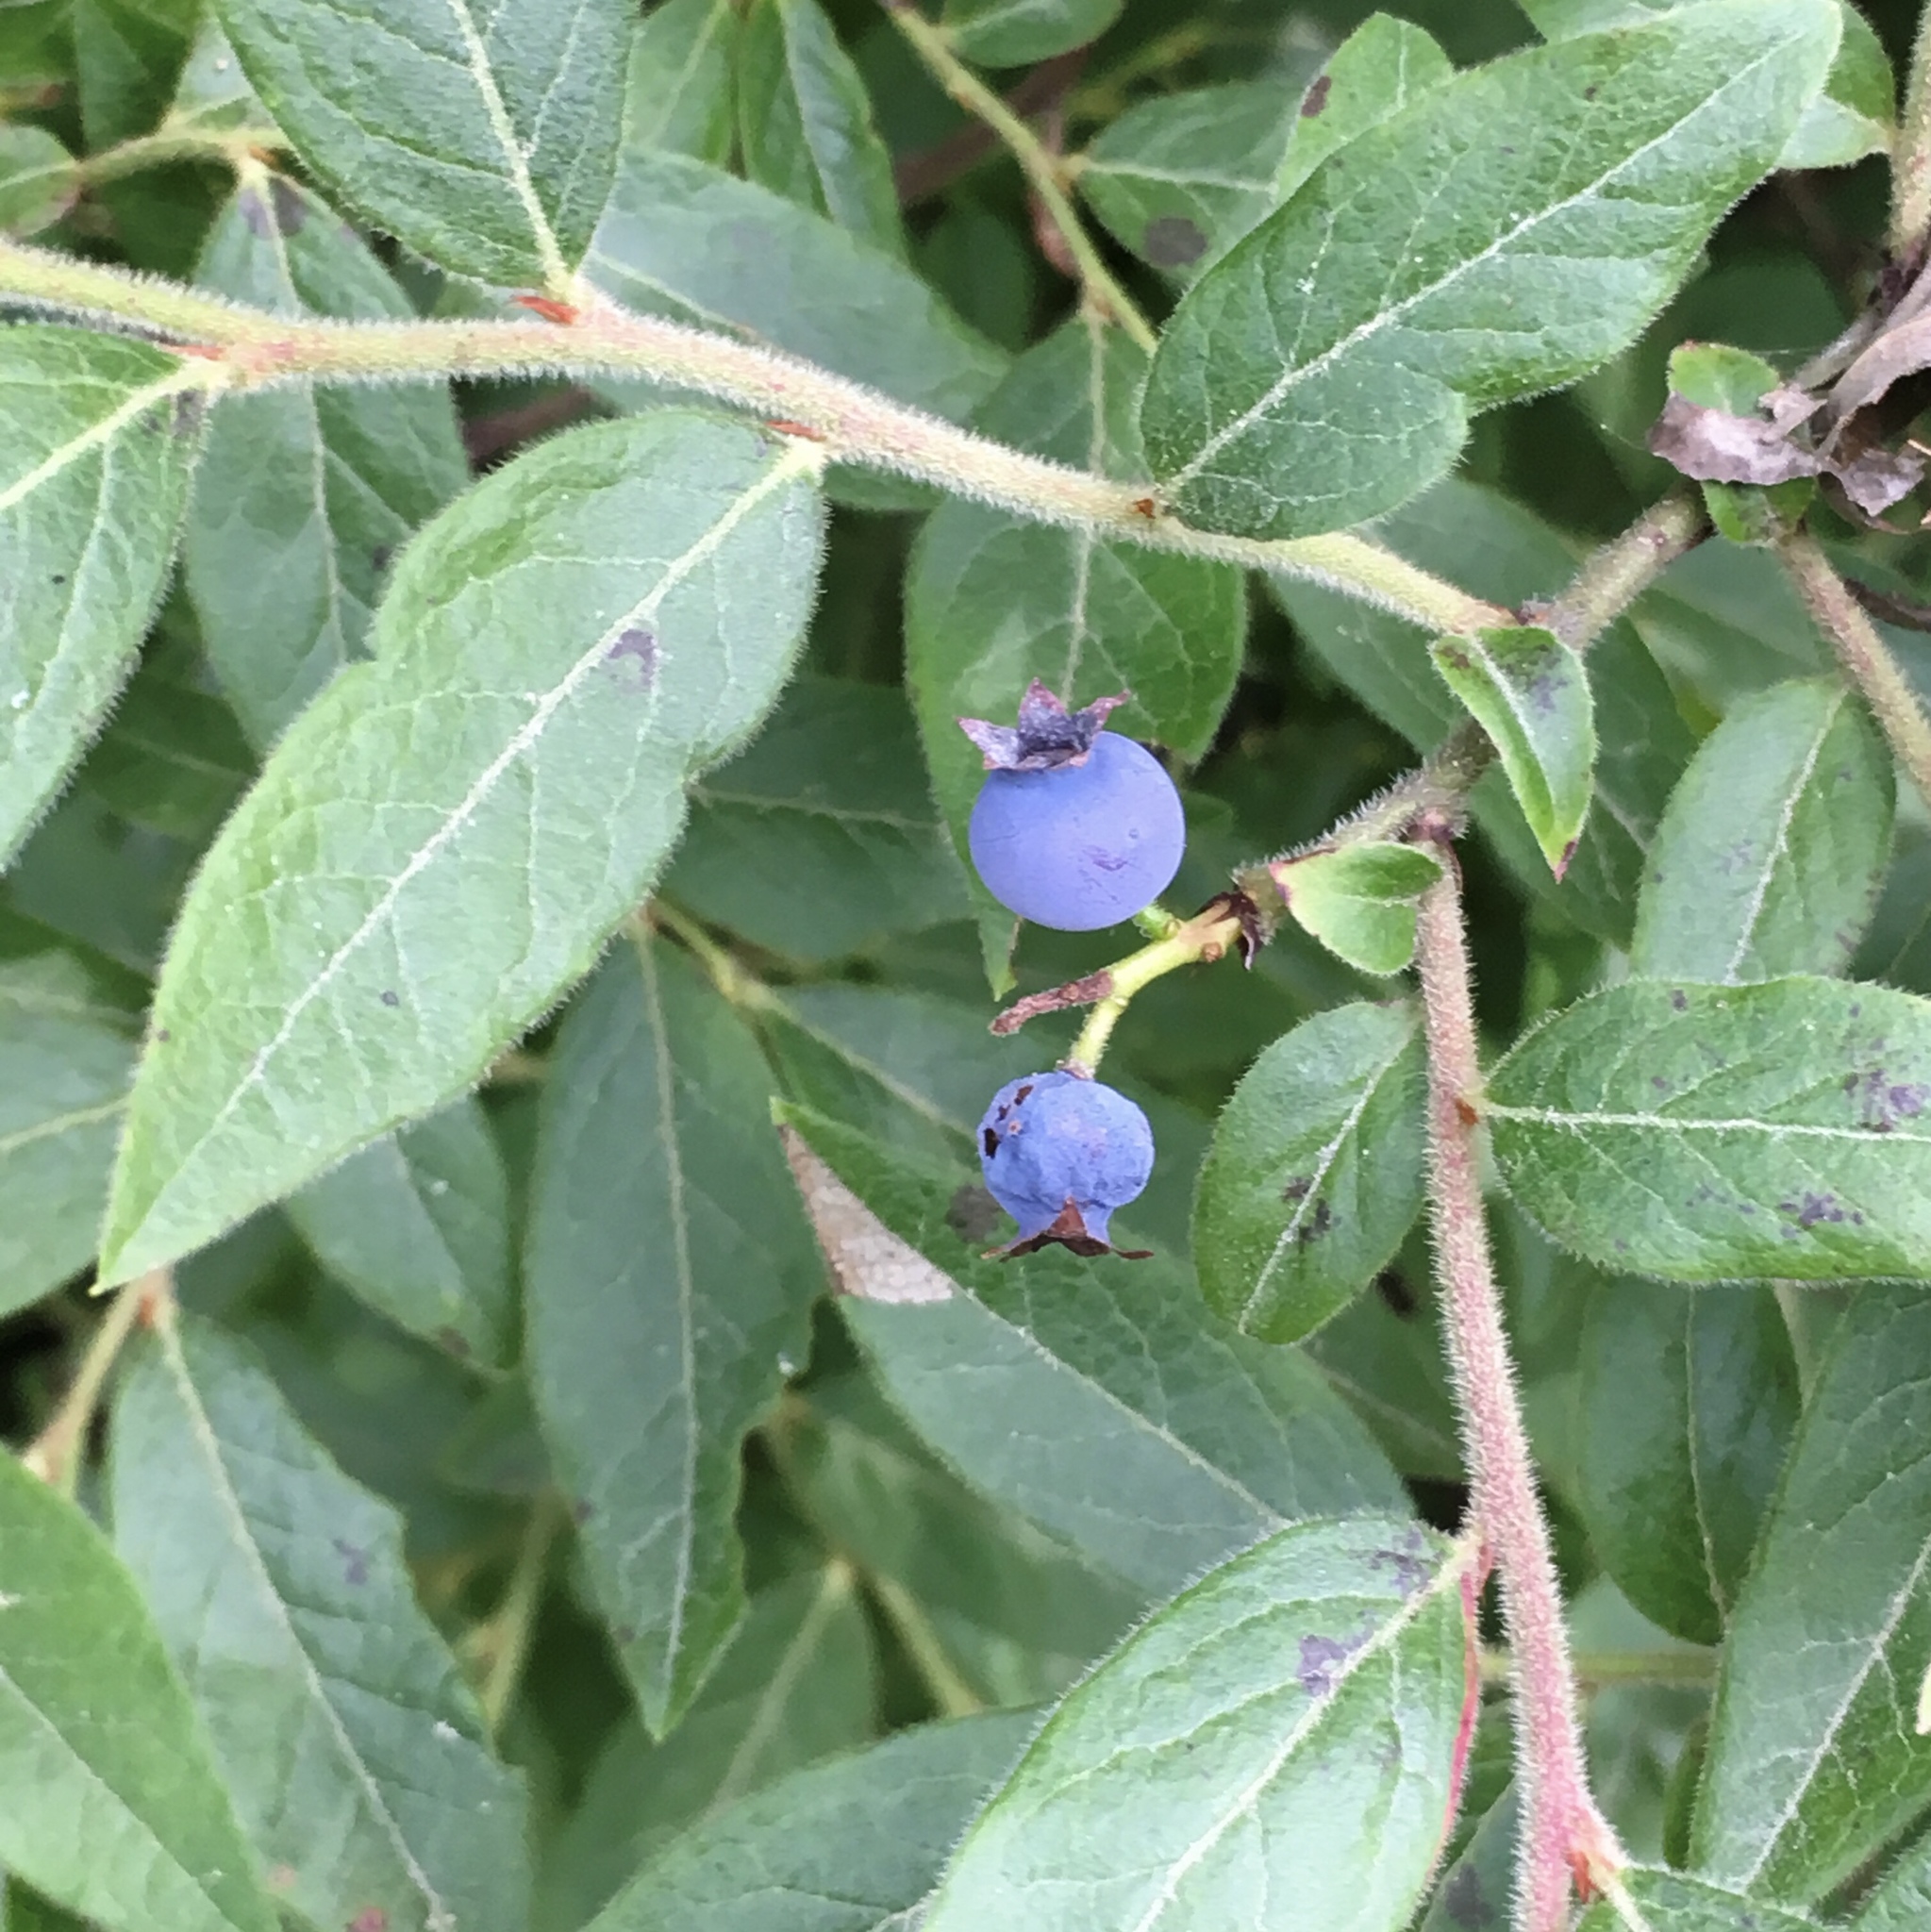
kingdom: Plantae
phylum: Tracheophyta
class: Magnoliopsida
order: Ericales
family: Ericaceae
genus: Vaccinium
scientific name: Vaccinium myrtilloides
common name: Canada blueberry
